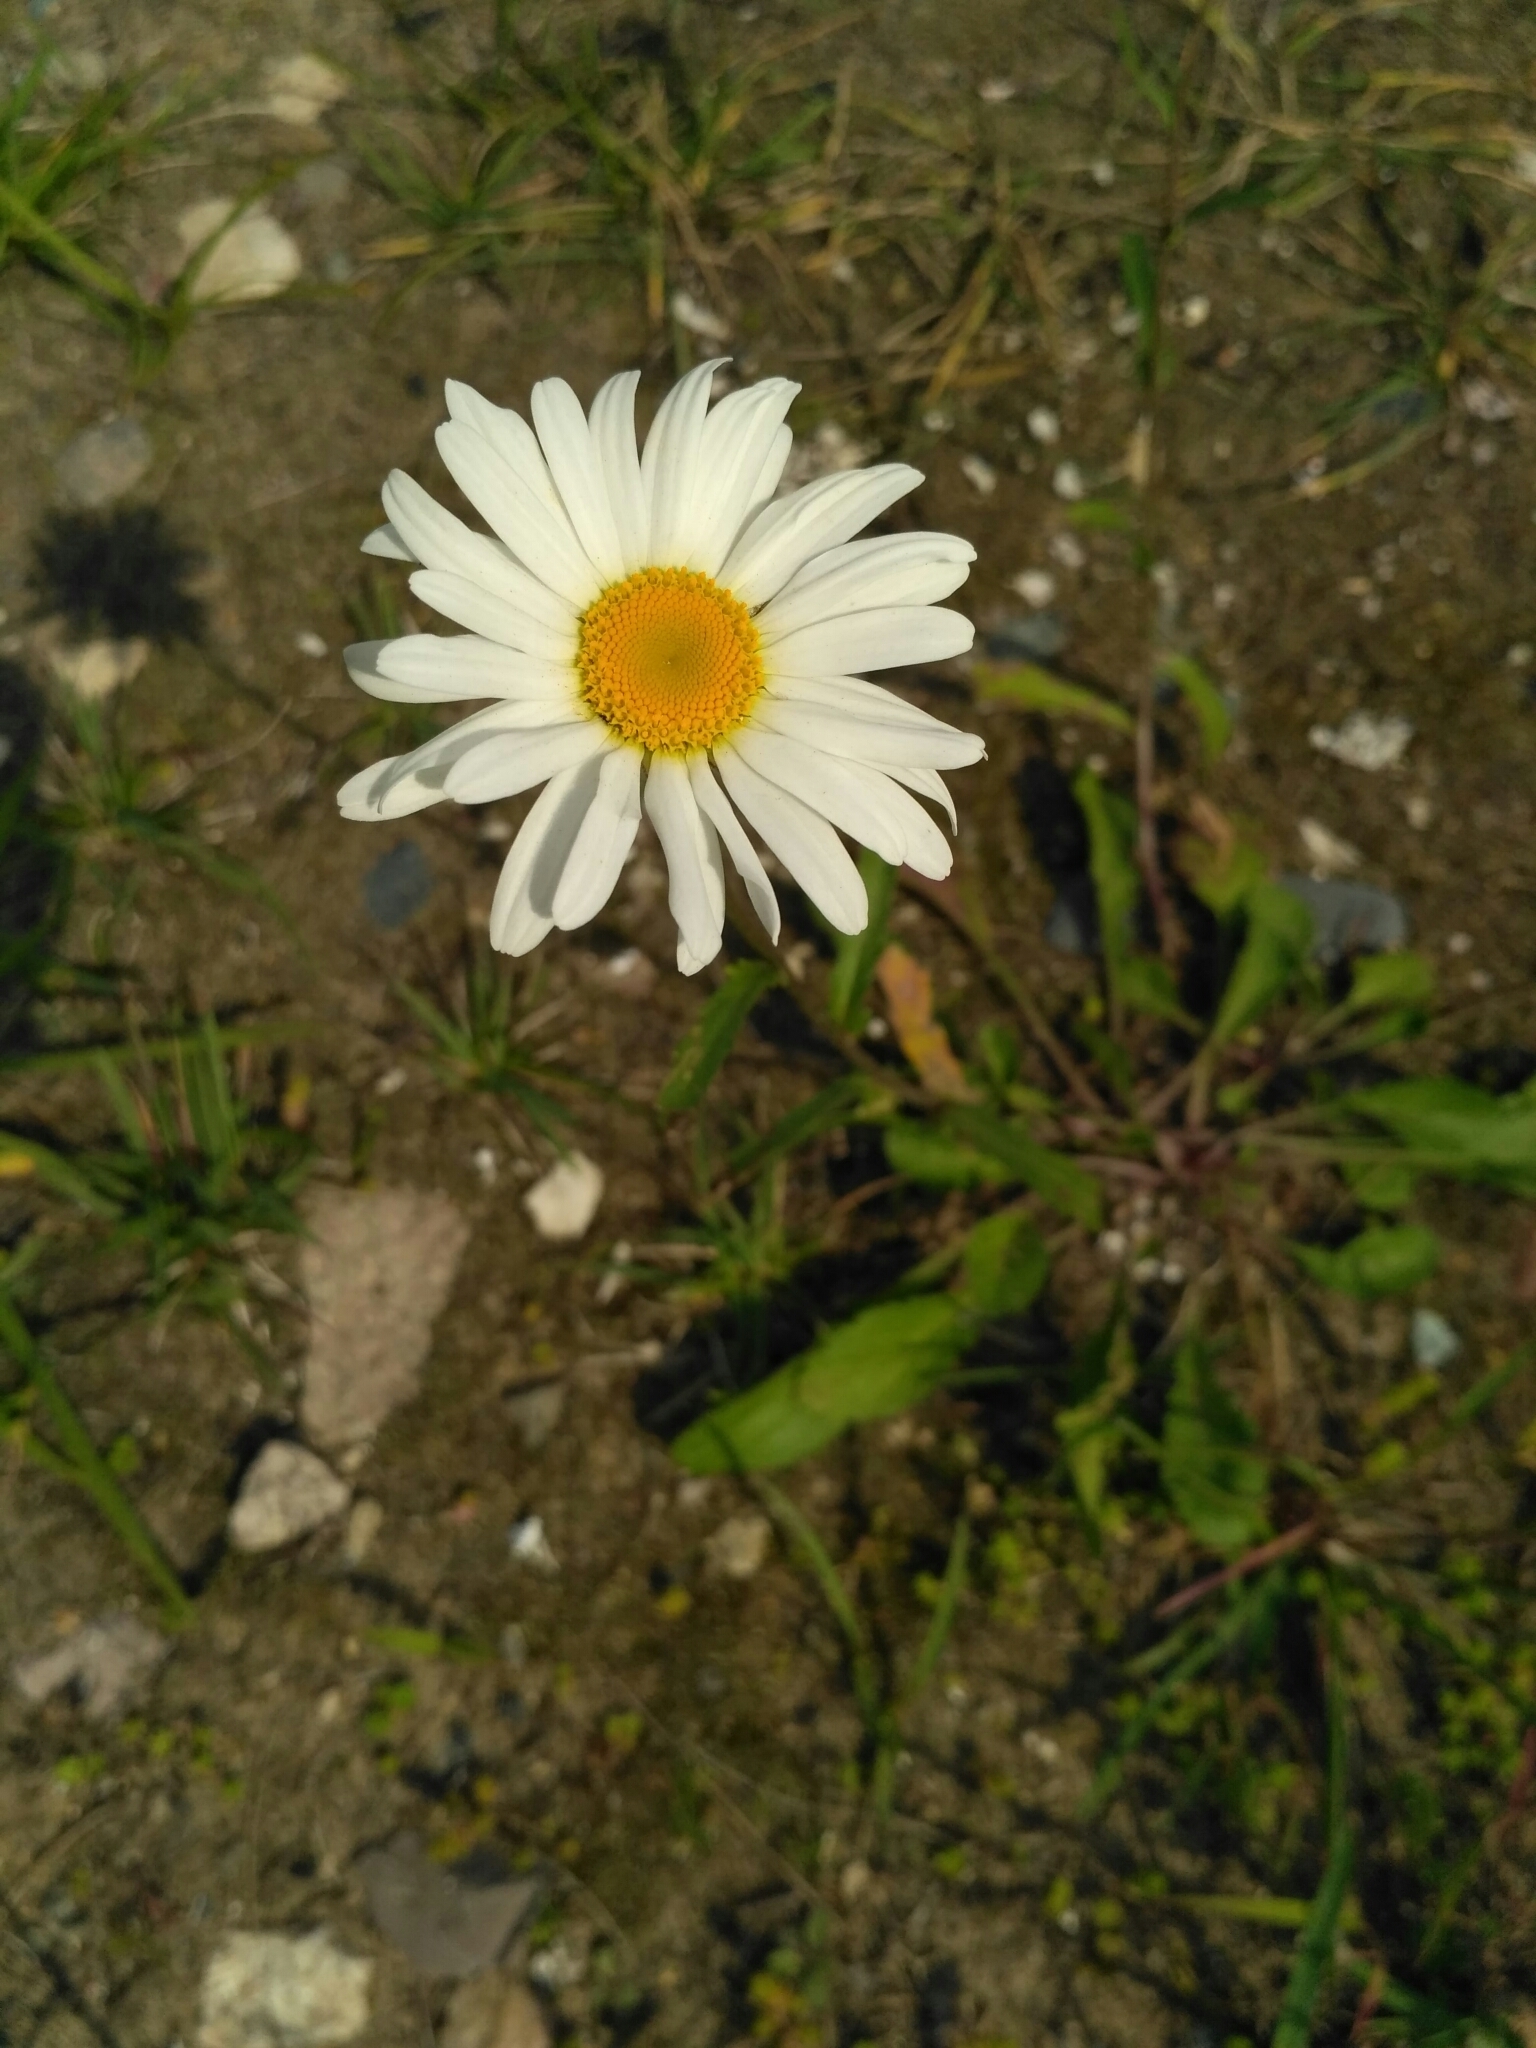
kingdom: Plantae
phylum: Tracheophyta
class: Magnoliopsida
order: Asterales
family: Asteraceae
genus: Leucanthemum
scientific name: Leucanthemum vulgare
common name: Oxeye daisy
